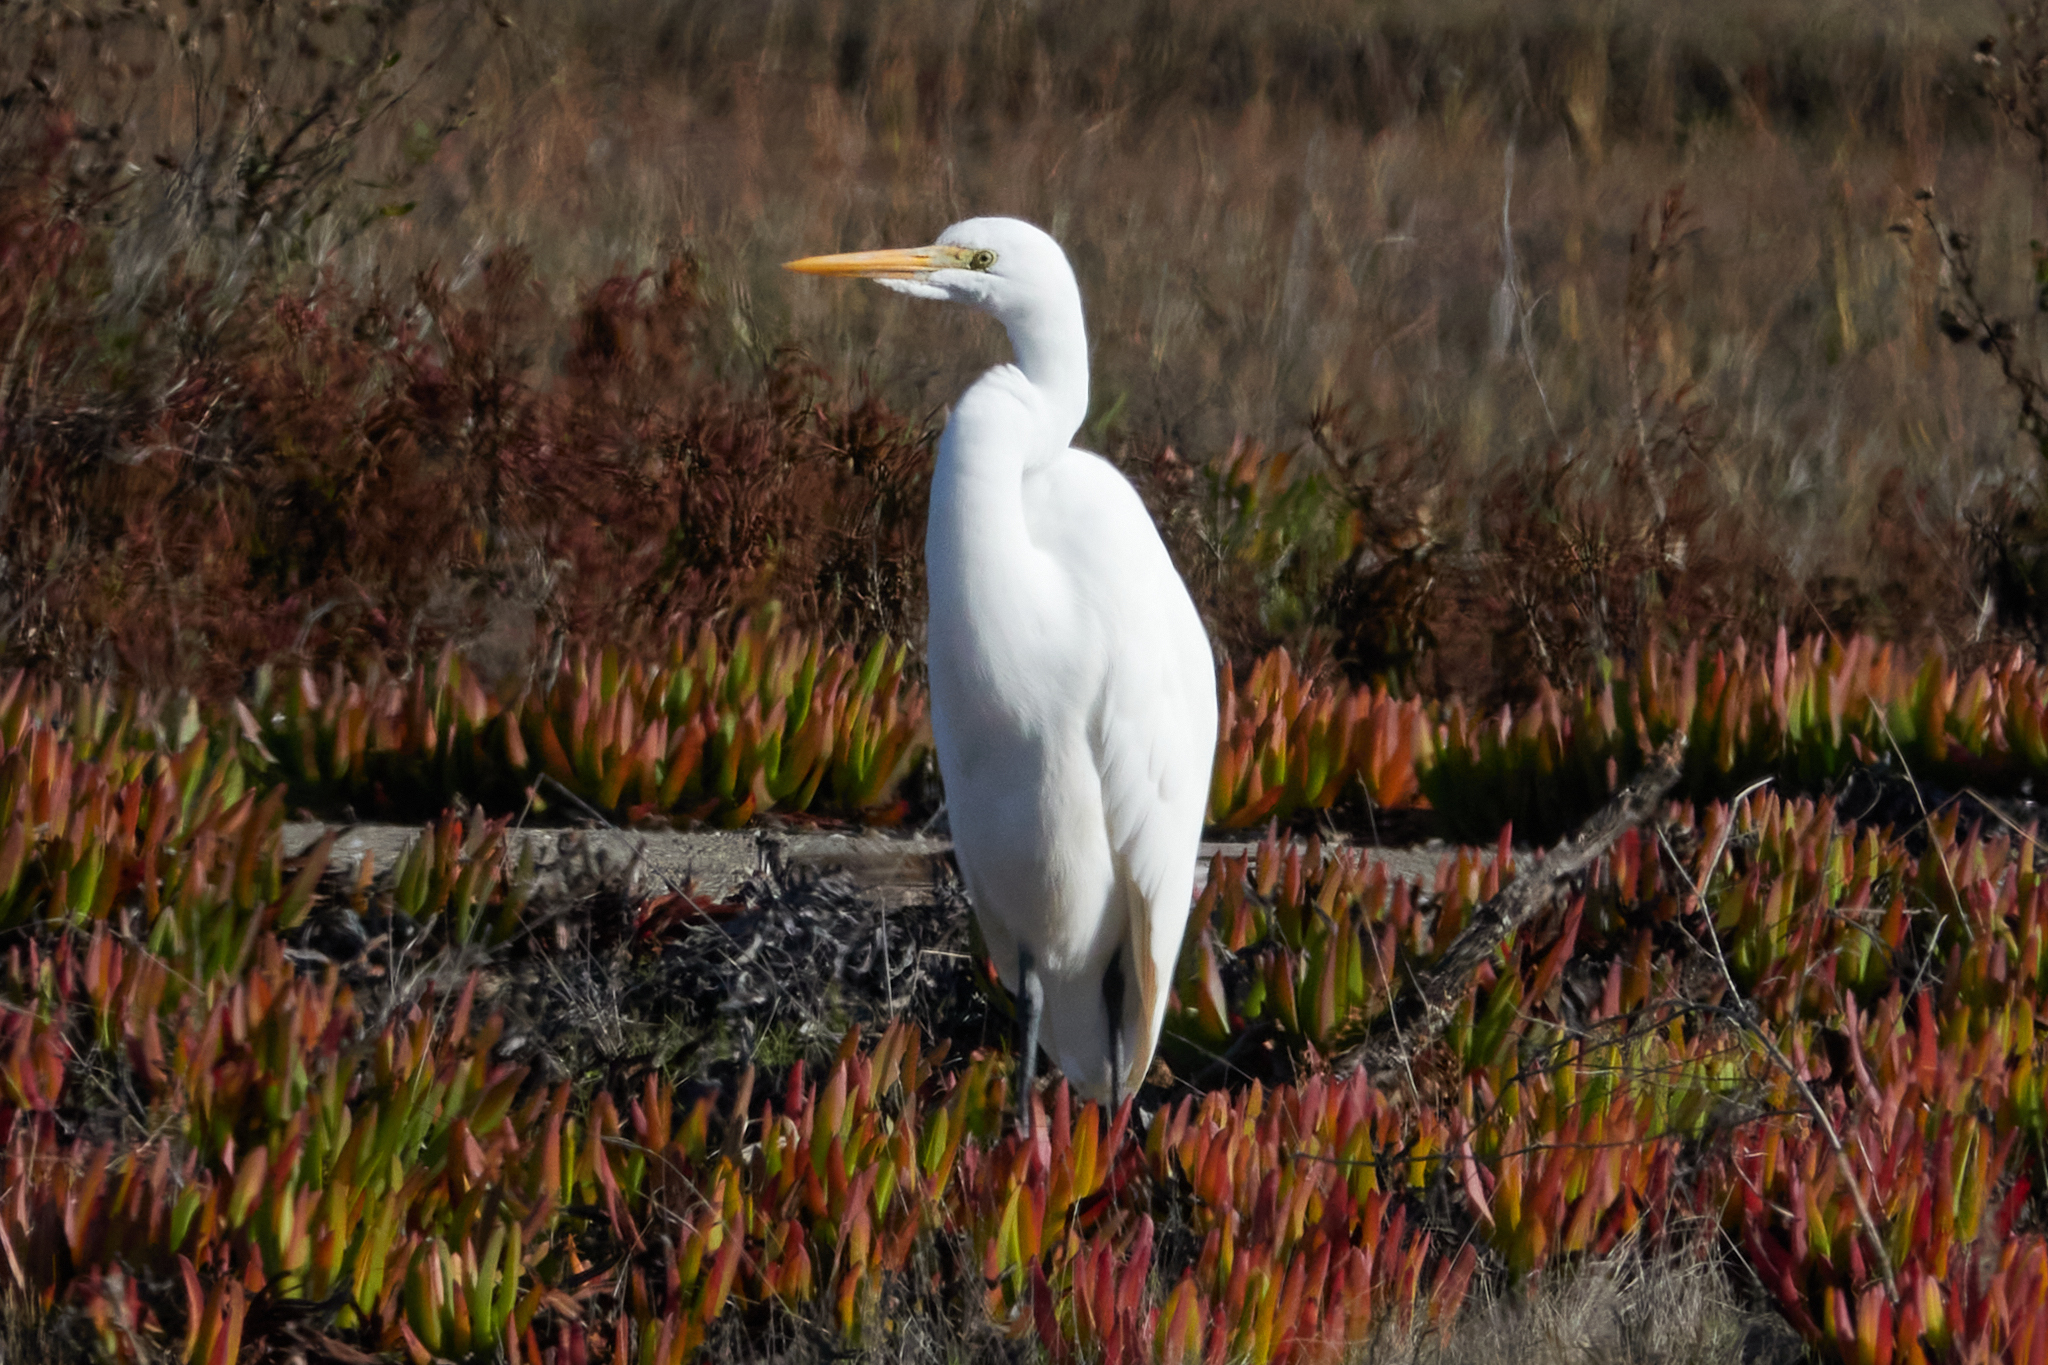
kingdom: Animalia
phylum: Chordata
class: Aves
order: Pelecaniformes
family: Ardeidae
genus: Ardea
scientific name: Ardea alba
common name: Great egret
